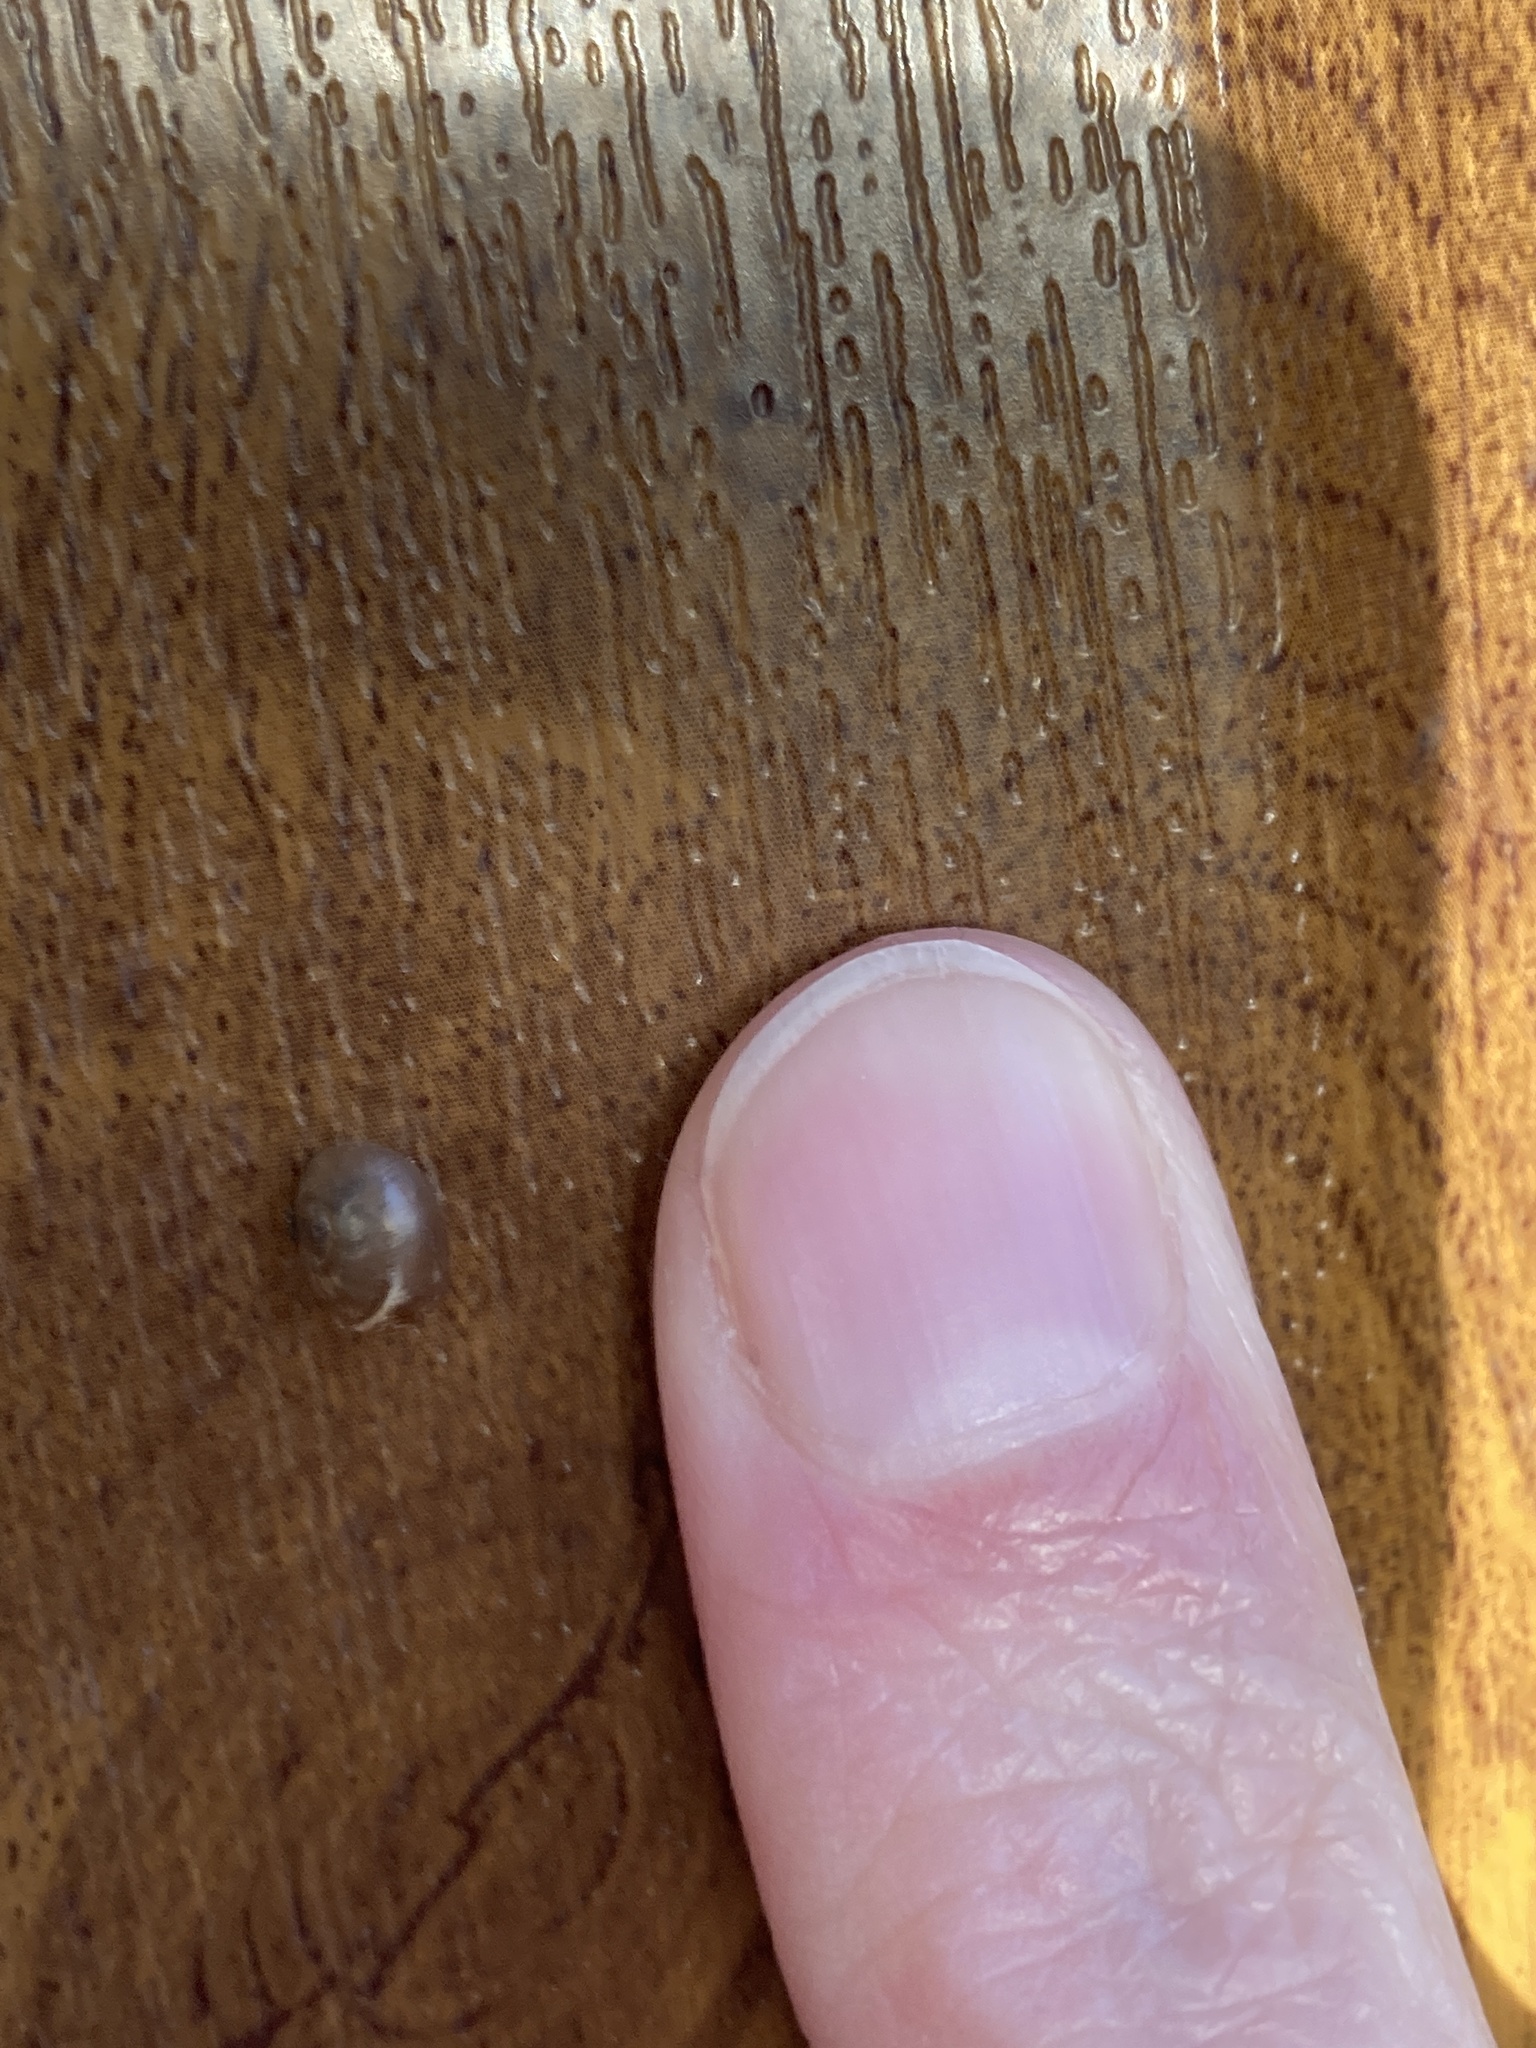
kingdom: Animalia
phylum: Mollusca
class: Gastropoda
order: Stylommatophora
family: Helicidae
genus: Cornu
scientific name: Cornu aspersum
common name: Brown garden snail
